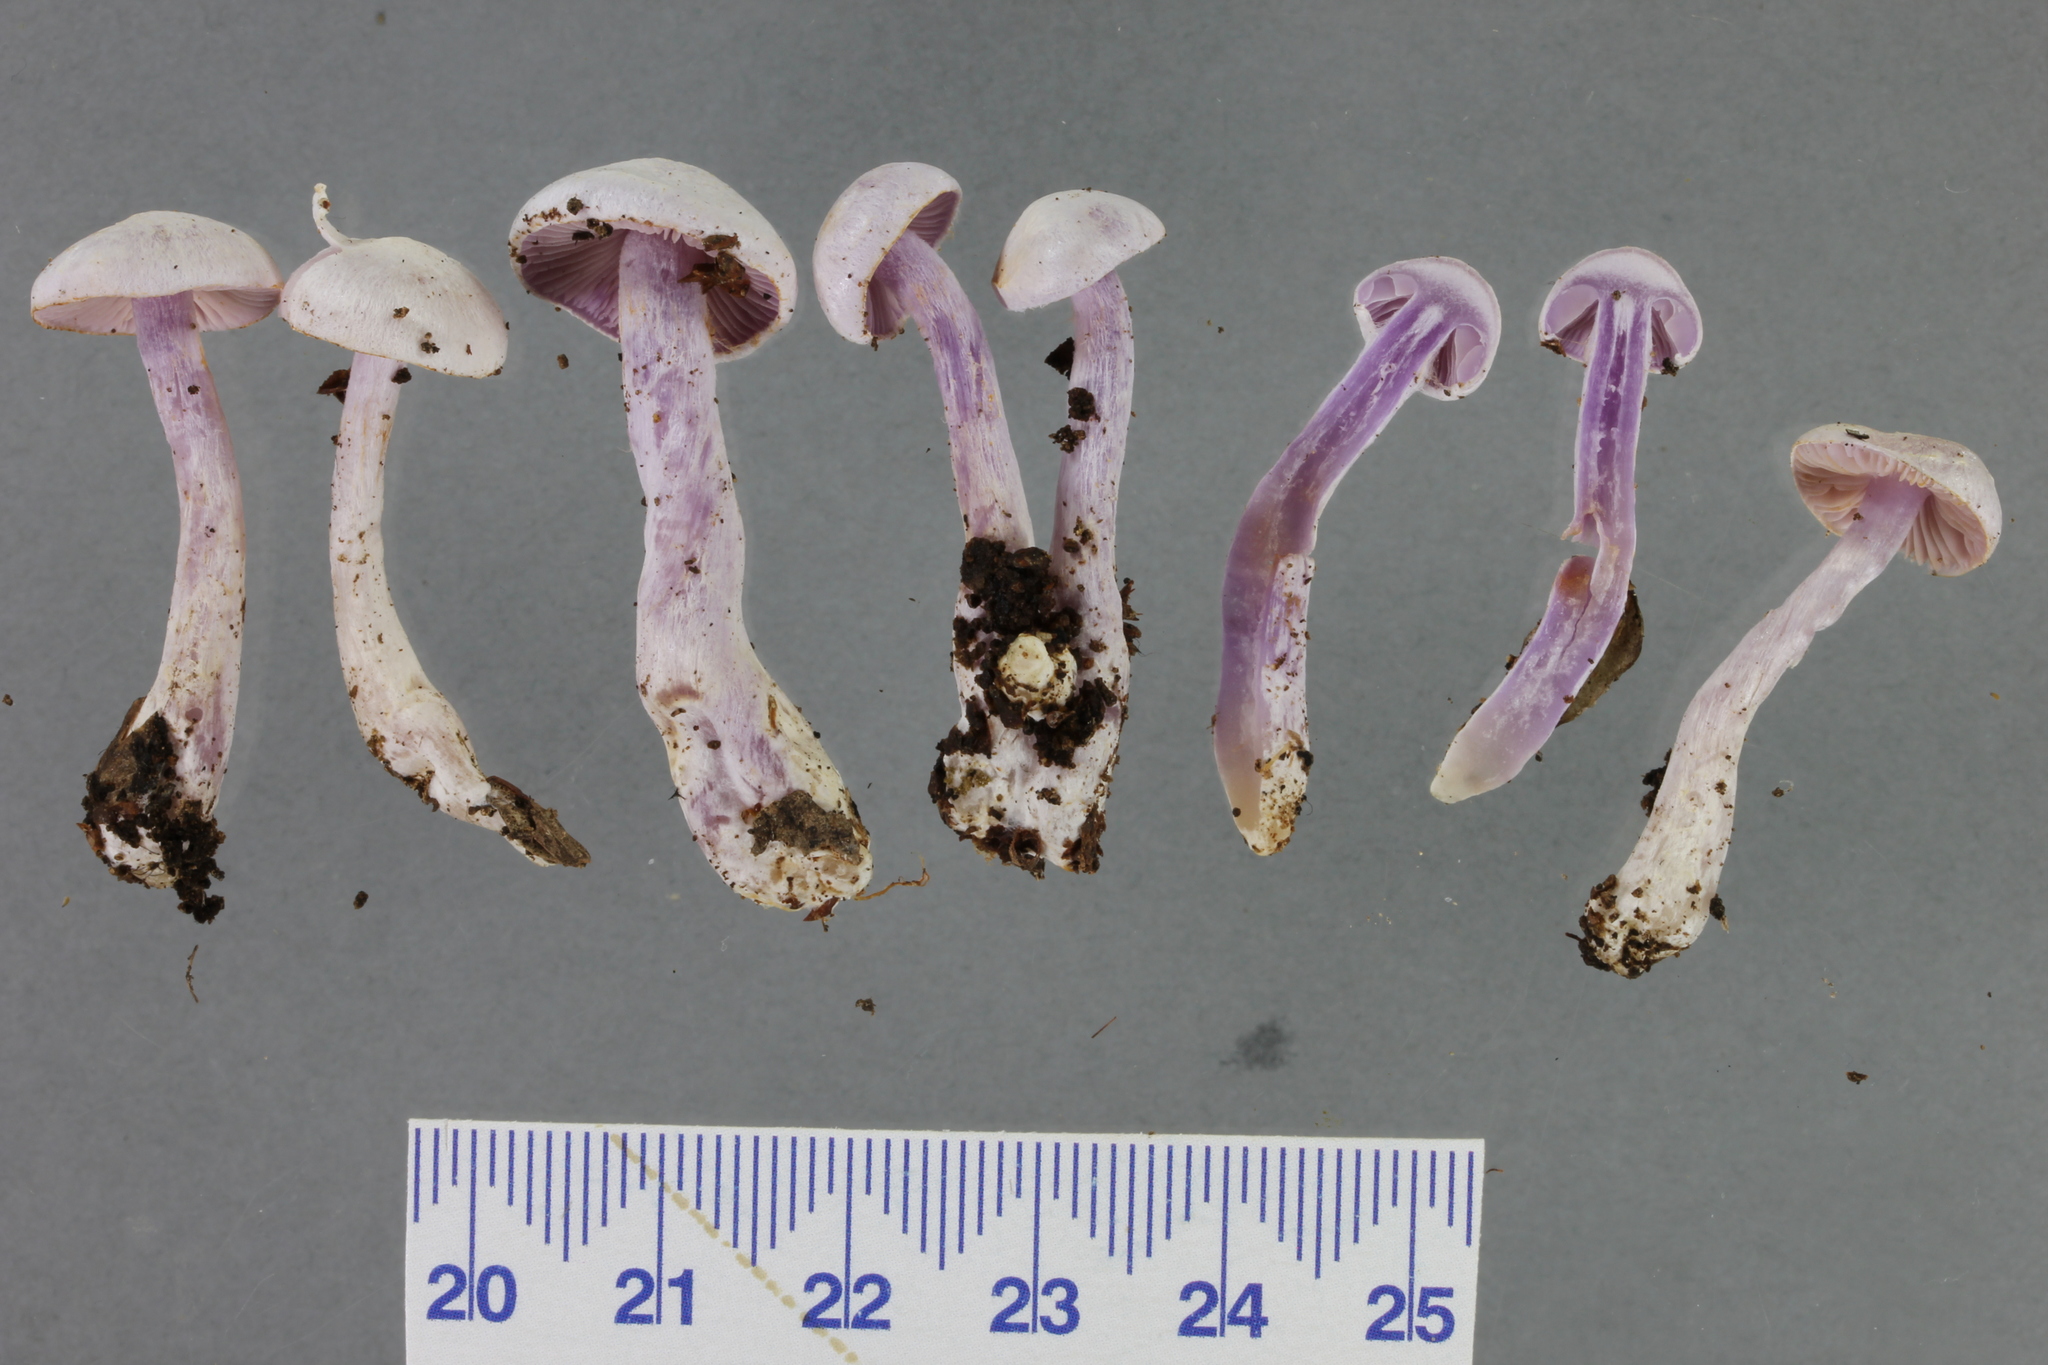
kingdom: Fungi
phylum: Basidiomycota
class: Agaricomycetes
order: Agaricales
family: Cortinariaceae
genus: Thaxterogaster
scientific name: Thaxterogaster laquellus
